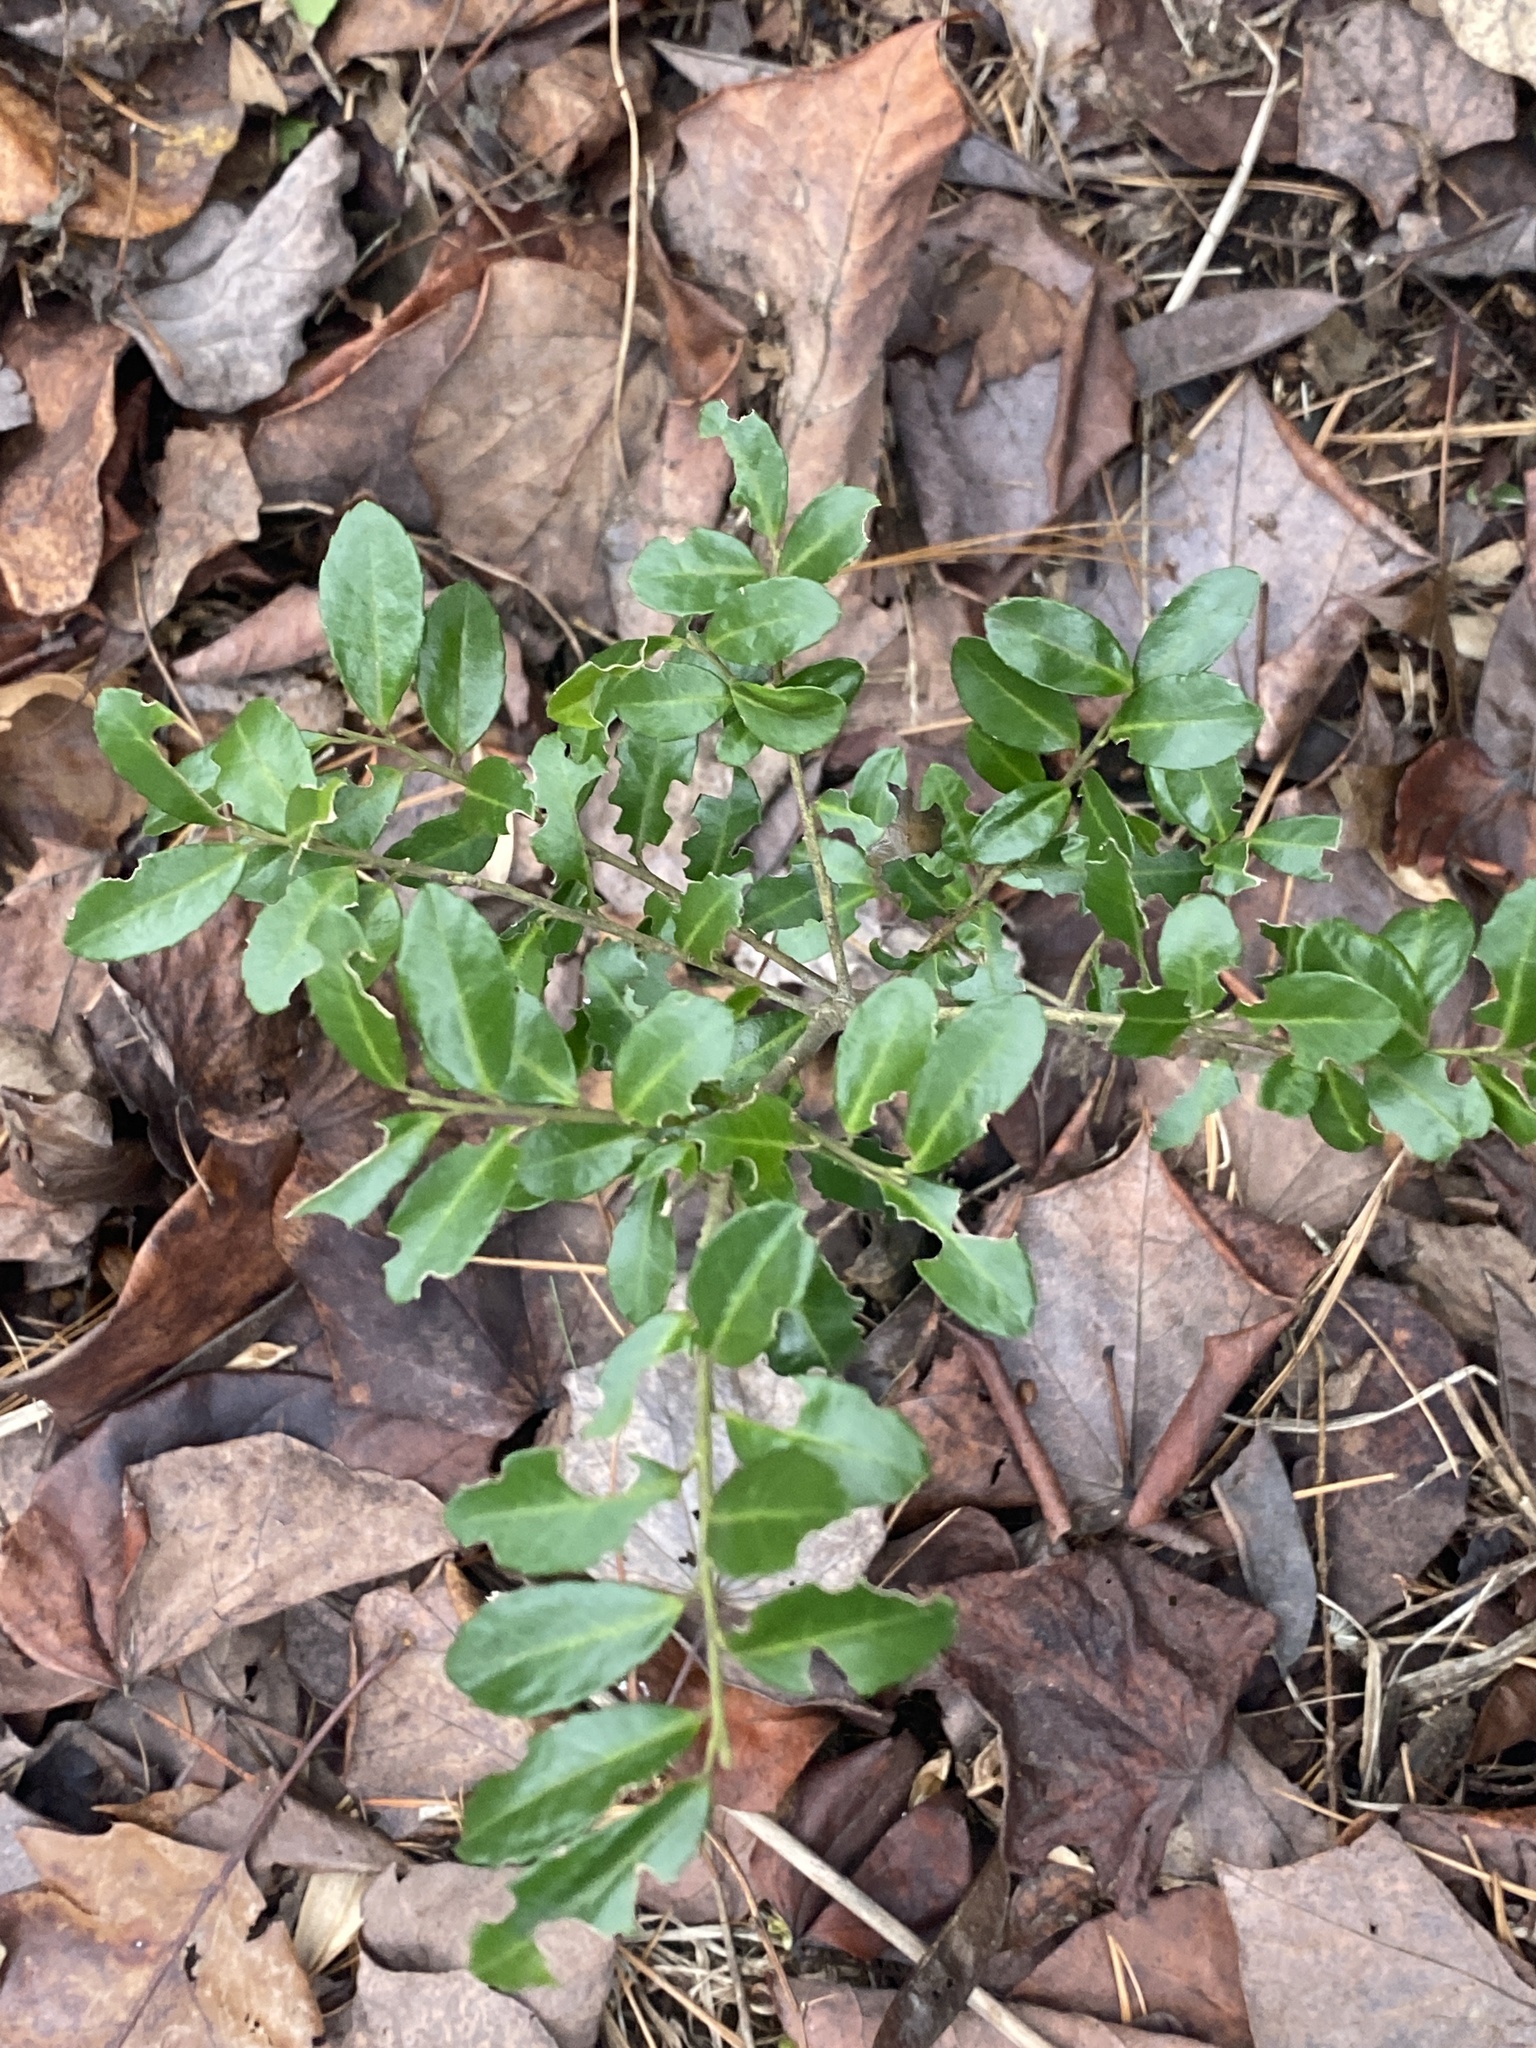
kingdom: Plantae
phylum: Tracheophyta
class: Magnoliopsida
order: Aquifoliales
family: Aquifoliaceae
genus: Ilex
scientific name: Ilex crenata
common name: Japanese holly
